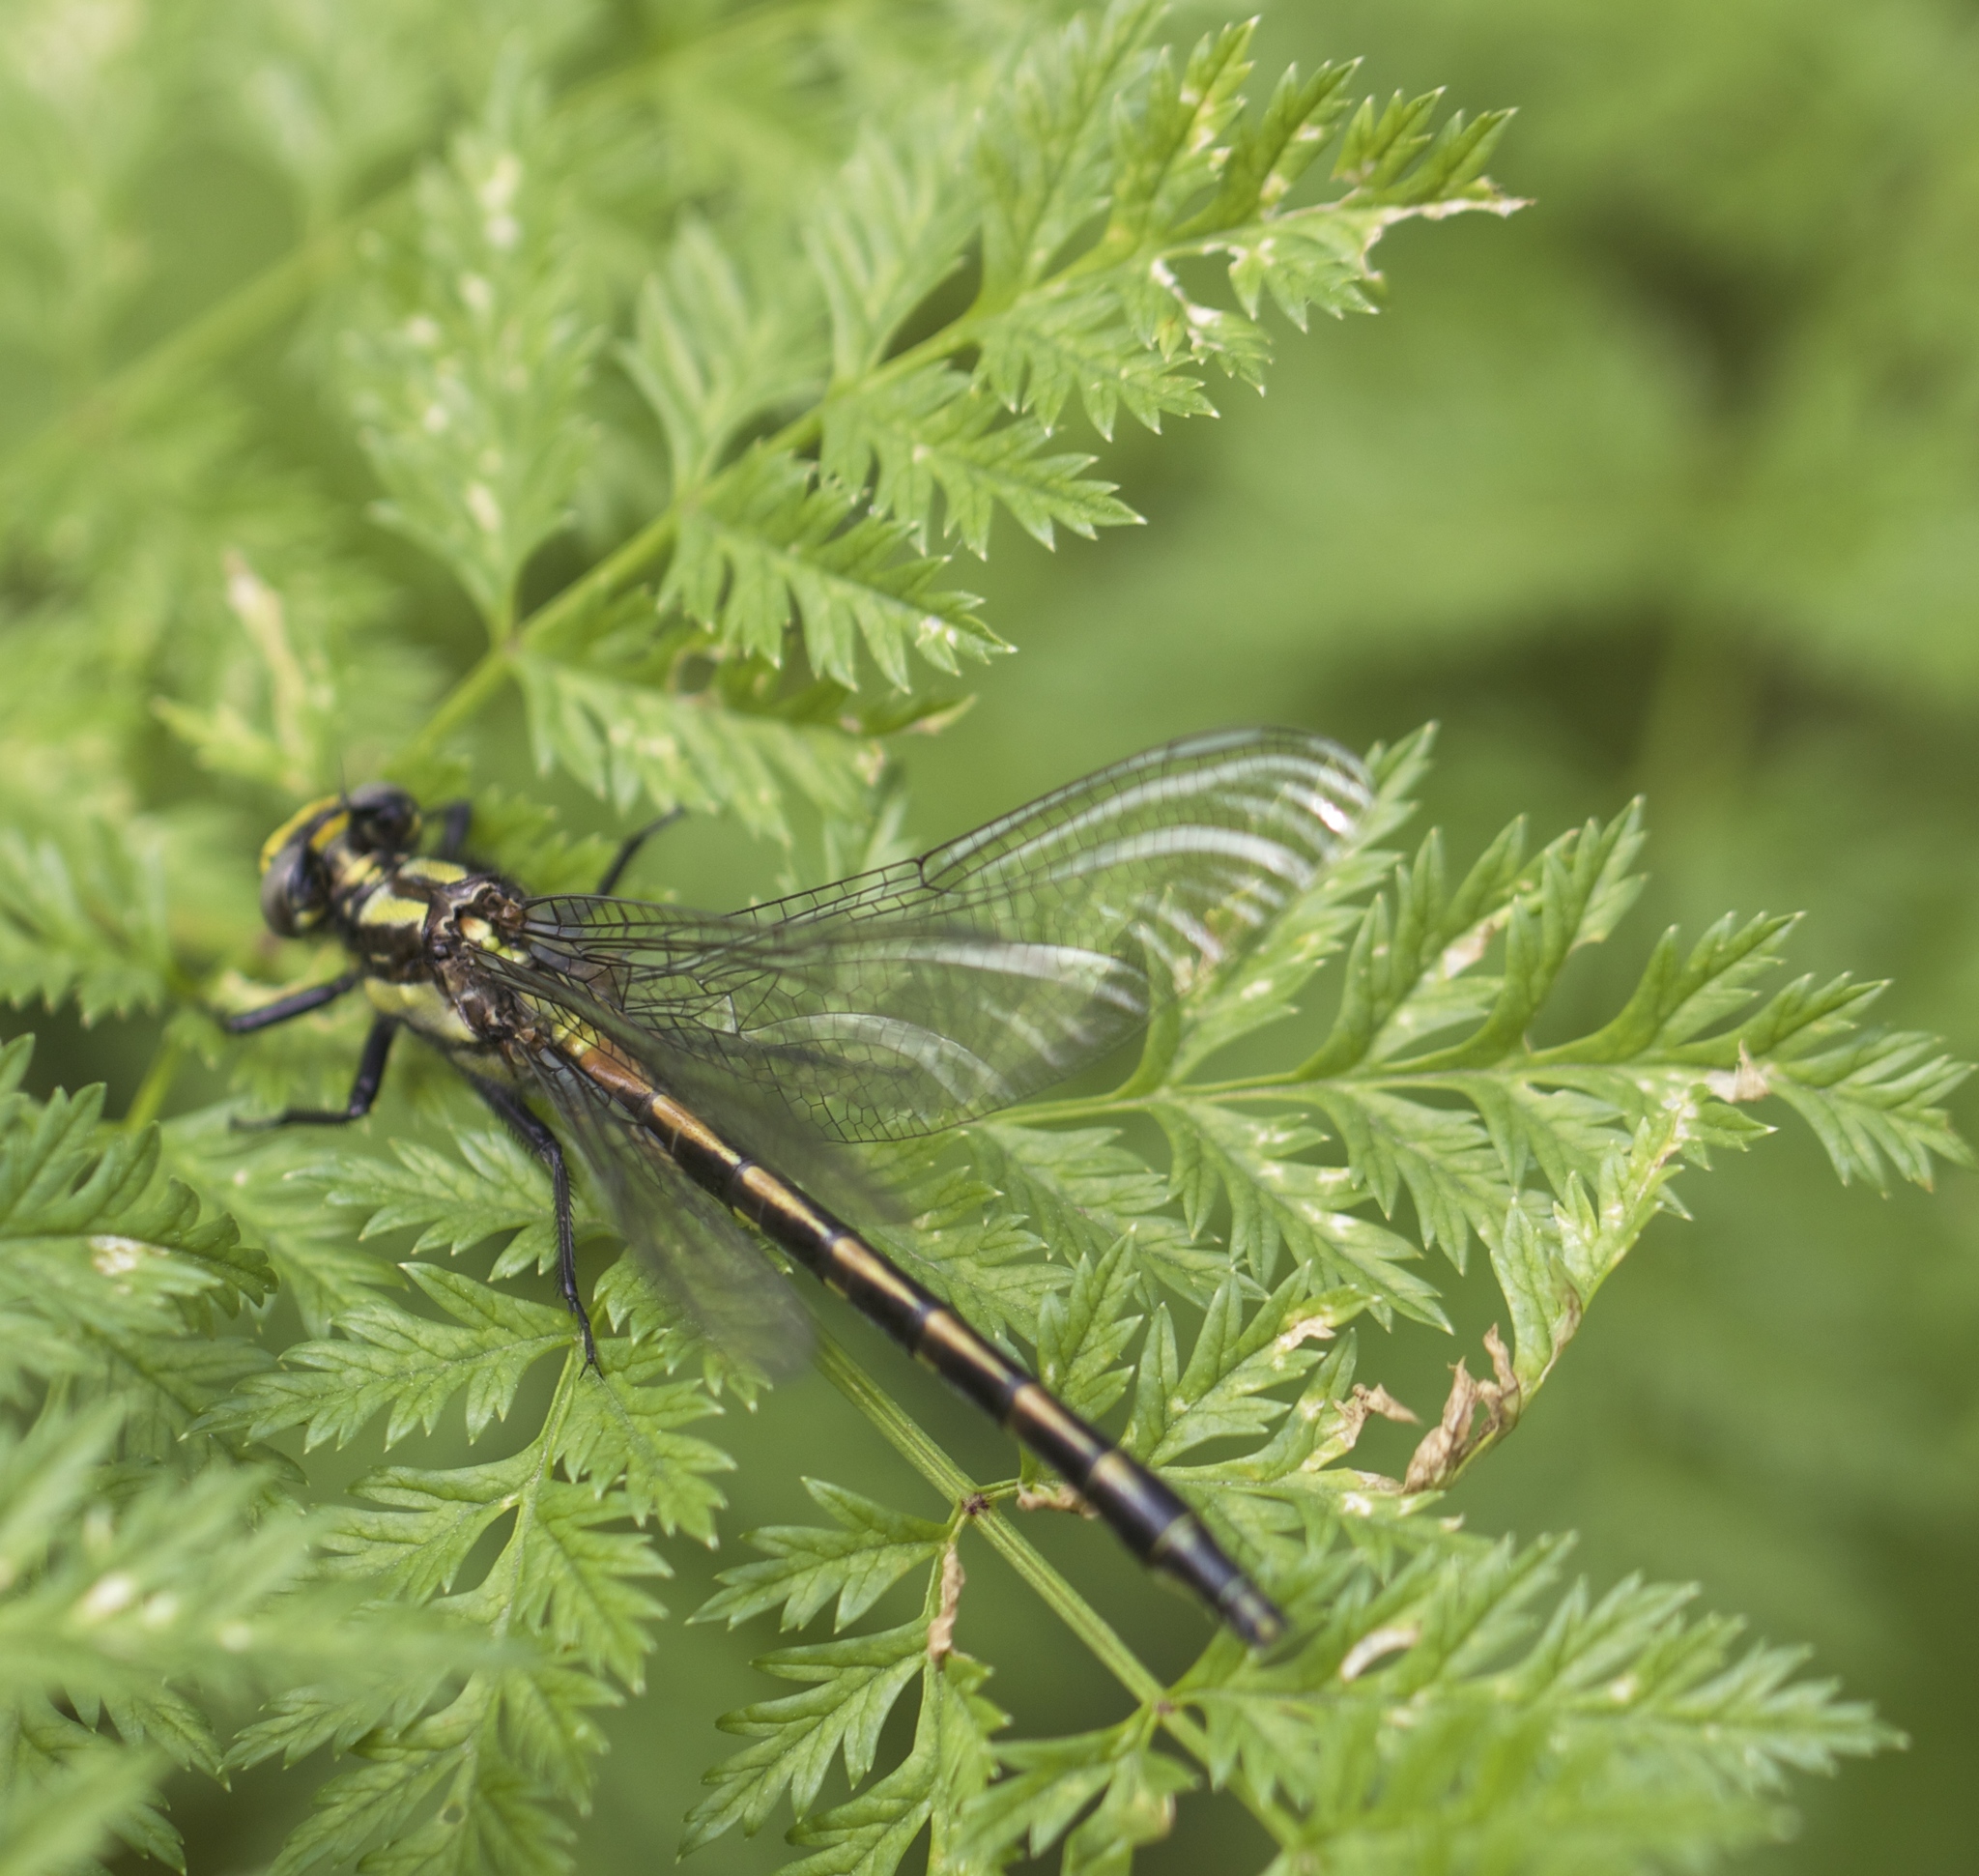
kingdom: Animalia
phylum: Arthropoda
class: Insecta
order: Odonata
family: Gomphidae
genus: Phanogomphus
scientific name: Phanogomphus kurilis
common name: Pacific clubtail
